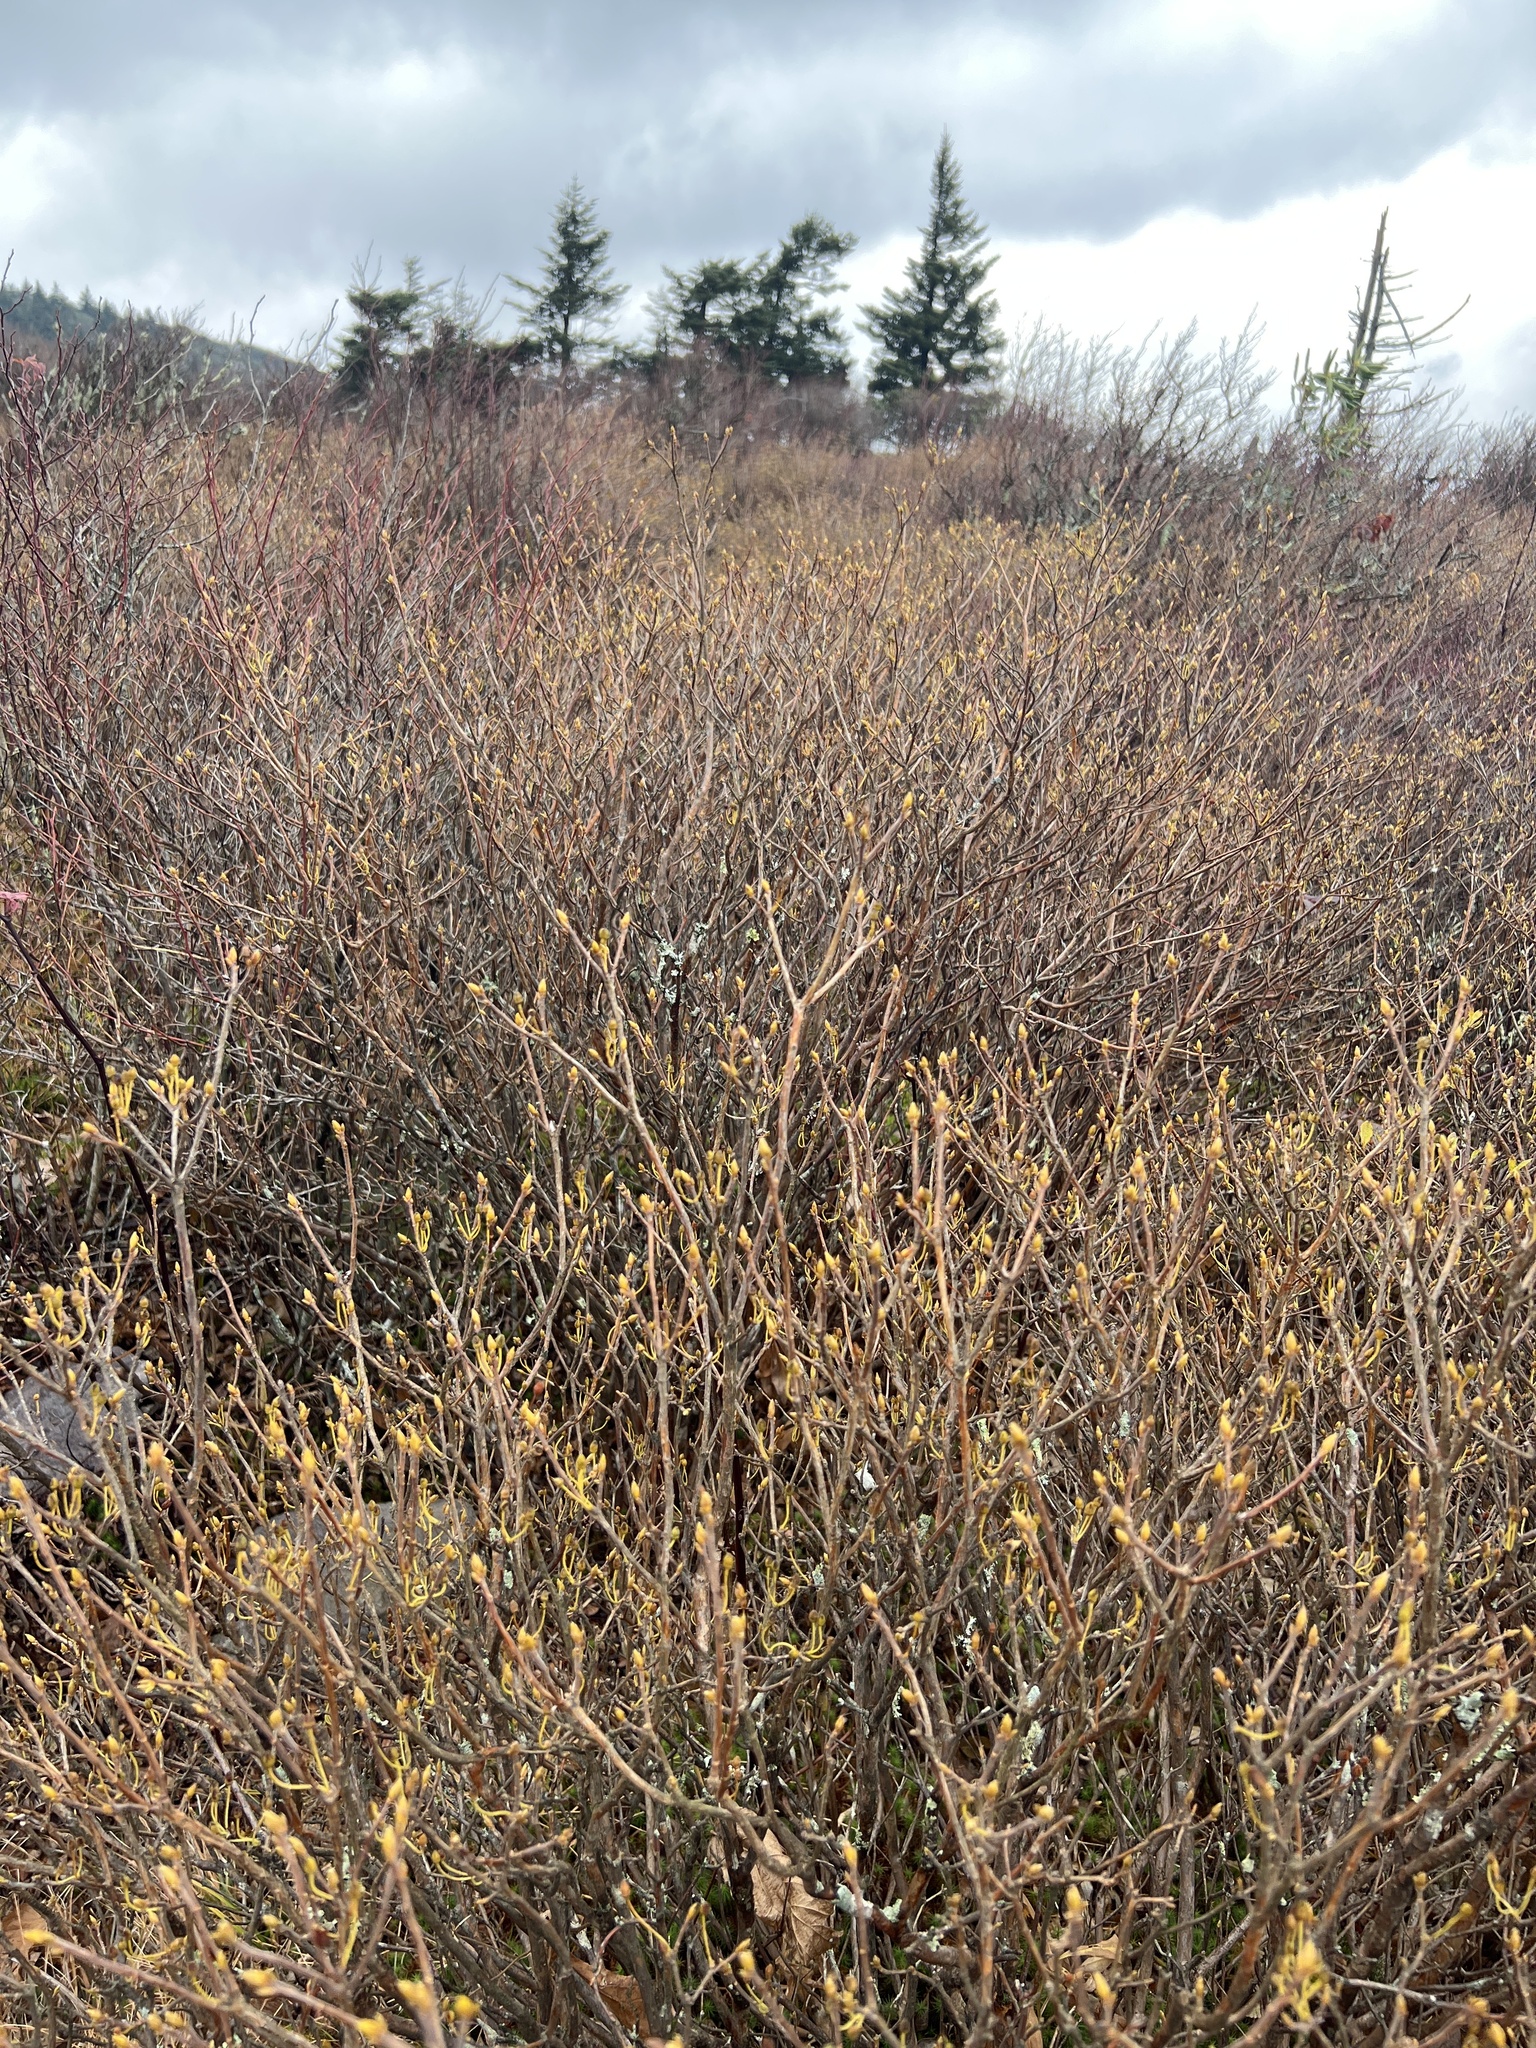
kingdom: Plantae
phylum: Tracheophyta
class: Magnoliopsida
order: Ericales
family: Ericaceae
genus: Rhododendron
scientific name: Rhododendron pilosum
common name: Hairy minniebush
